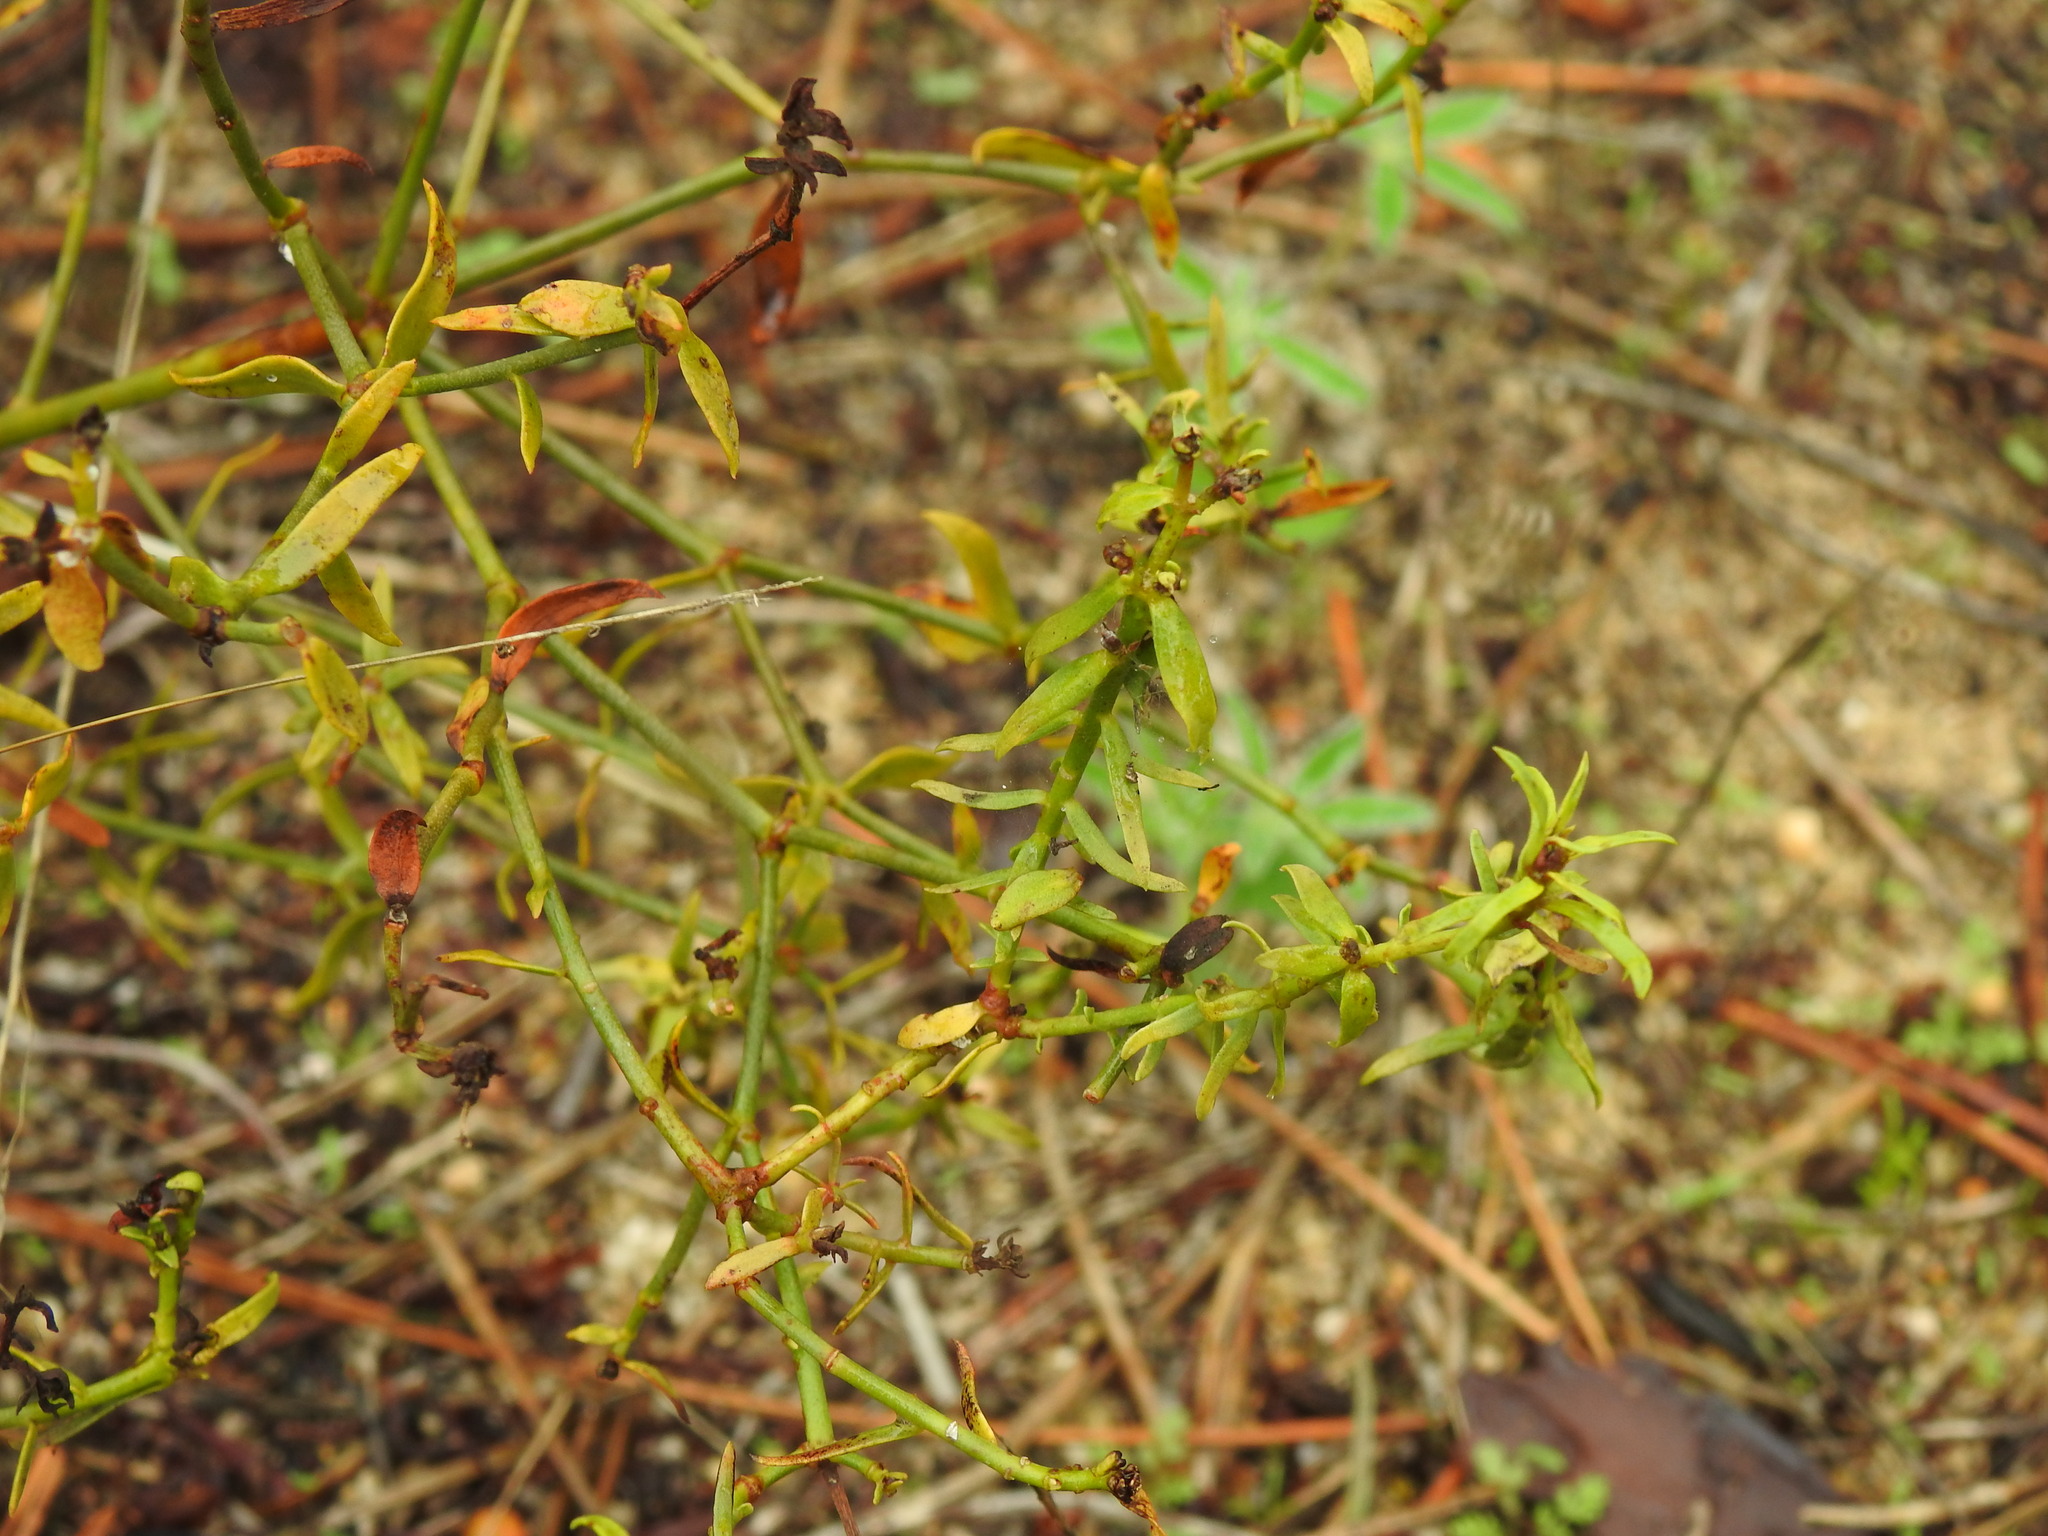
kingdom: Plantae
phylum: Tracheophyta
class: Magnoliopsida
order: Malpighiales
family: Euphorbiaceae
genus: Euphorbia
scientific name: Euphorbia boetica
